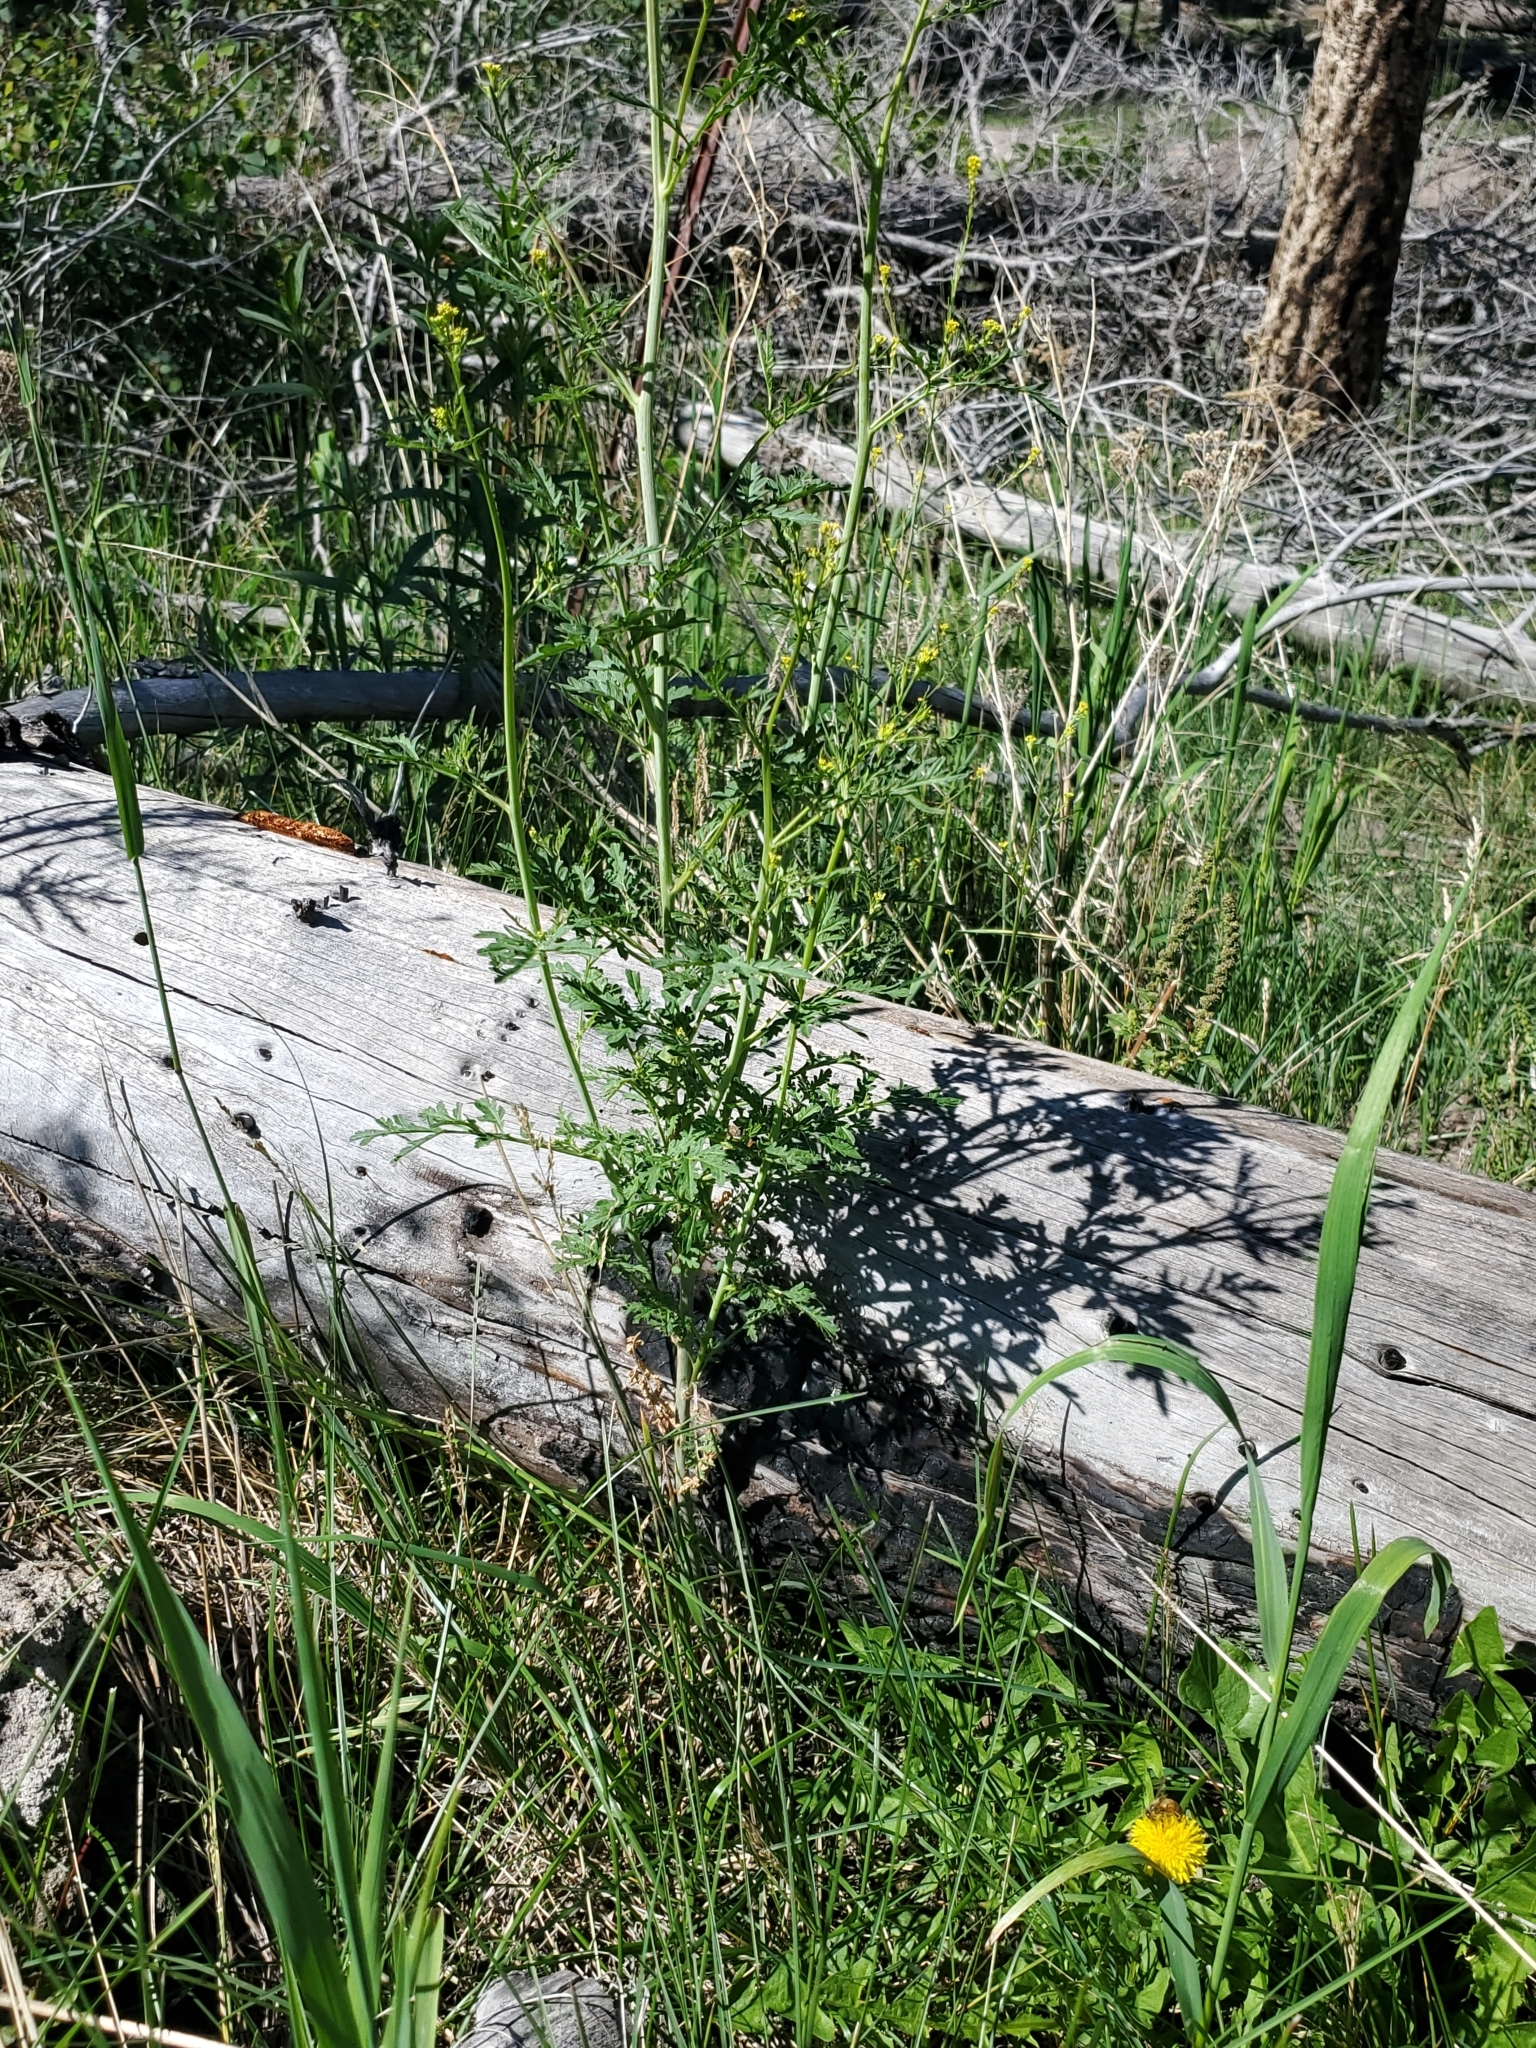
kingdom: Plantae
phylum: Tracheophyta
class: Magnoliopsida
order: Brassicales
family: Brassicaceae
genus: Descurainia
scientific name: Descurainia incana
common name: Gray tansy mustard
